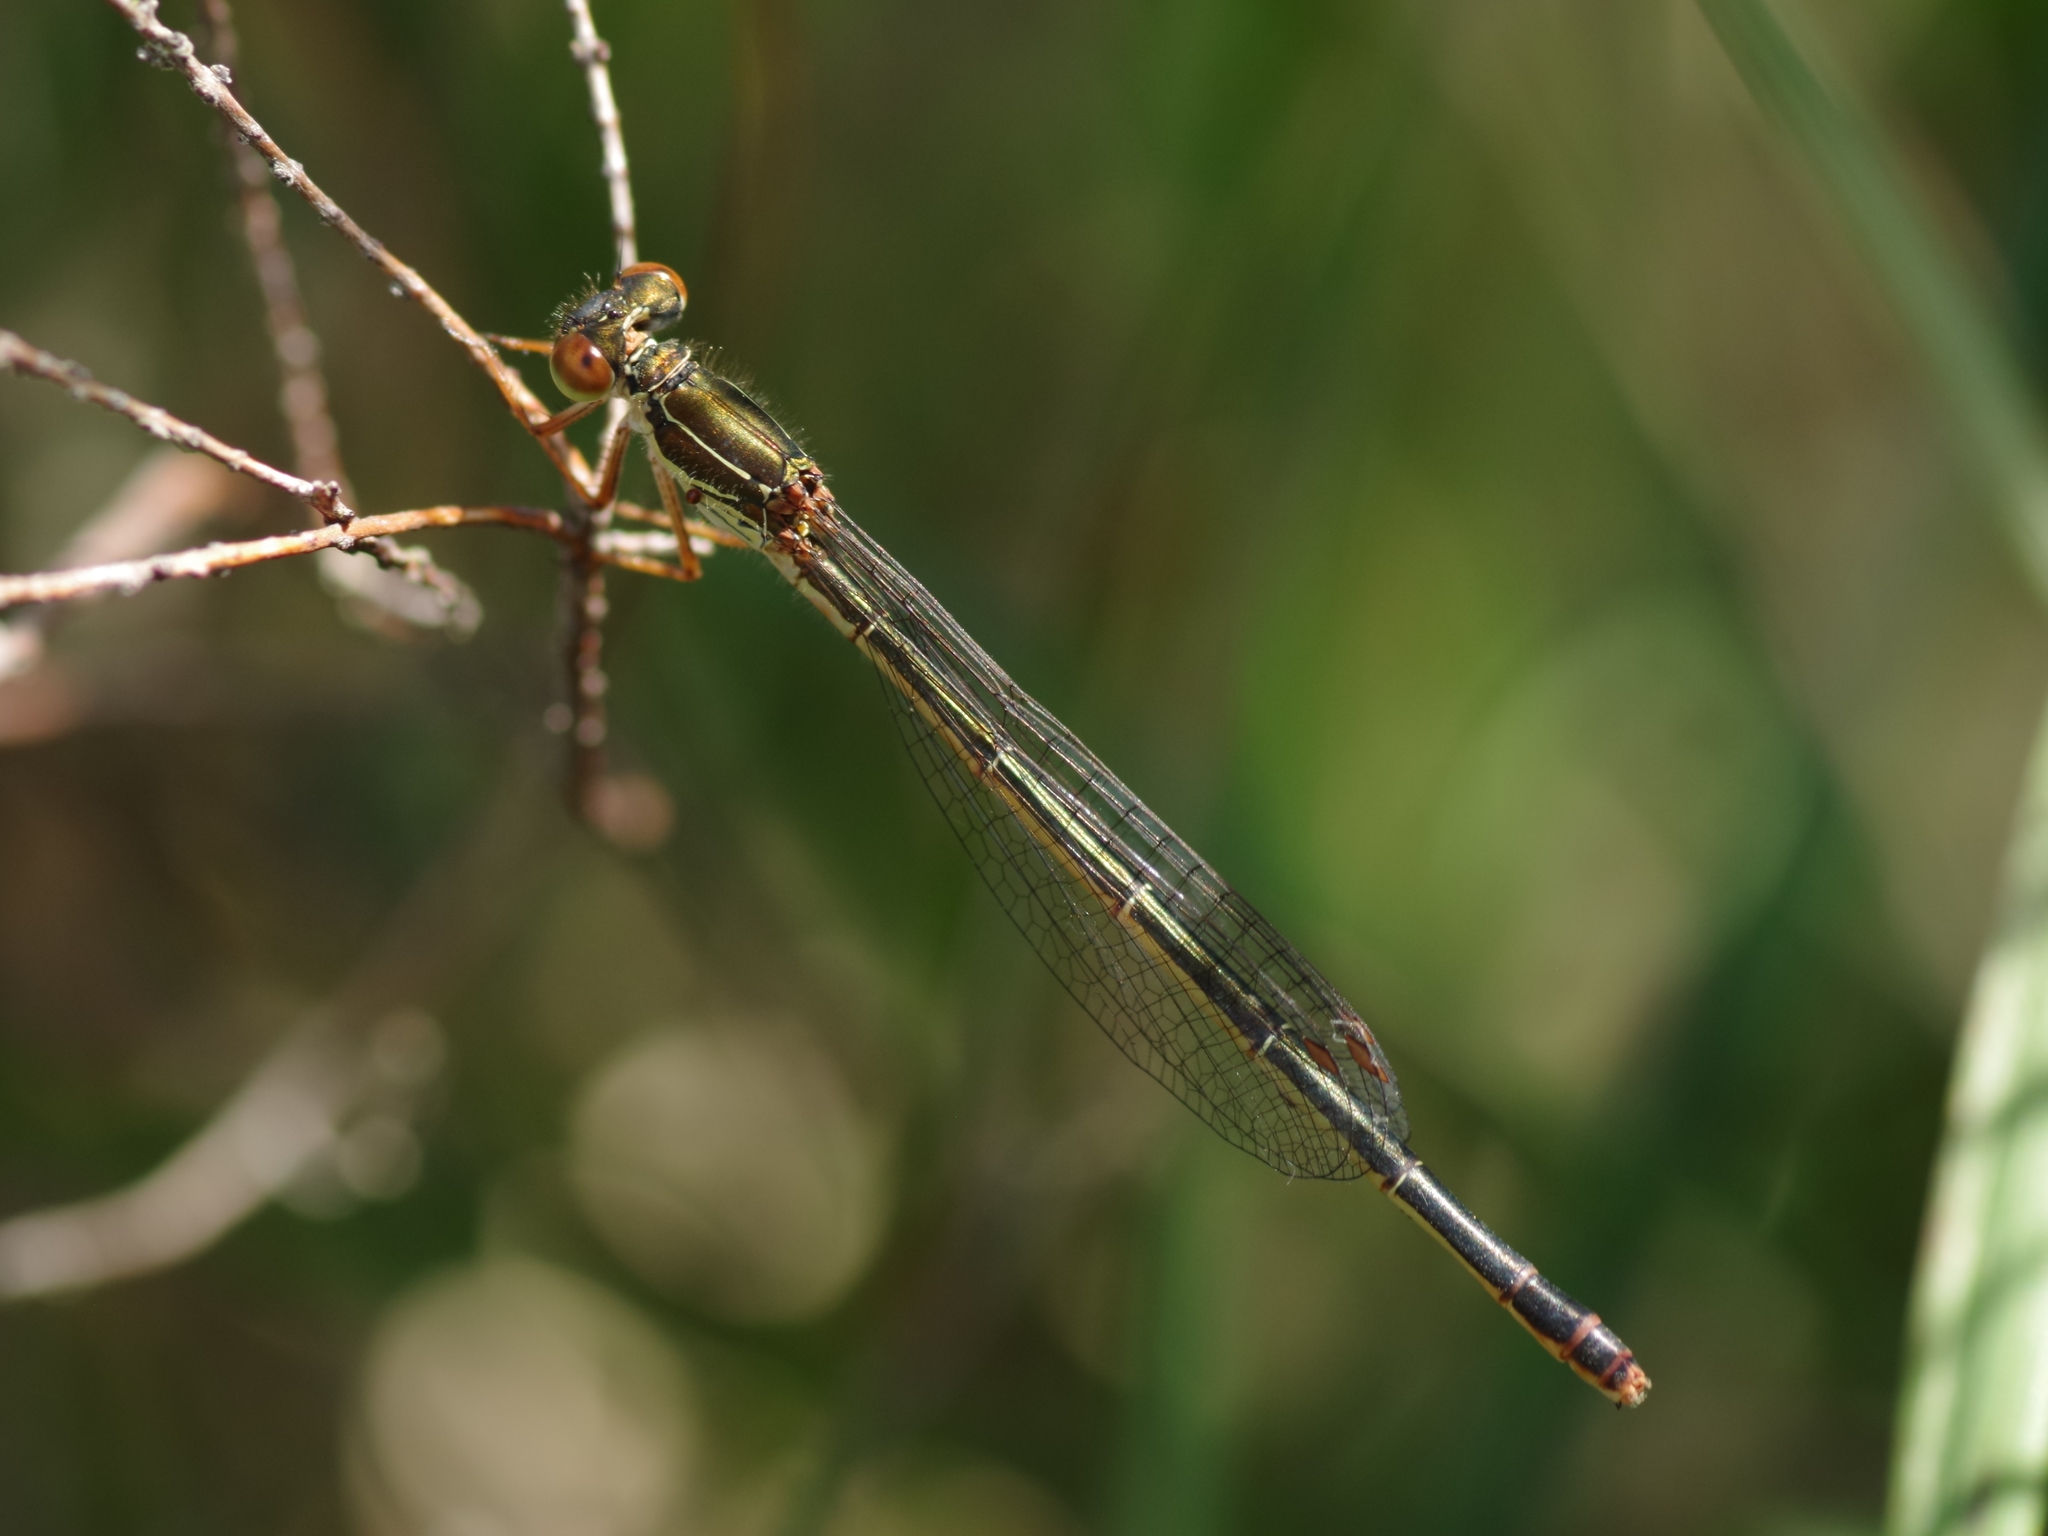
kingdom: Animalia
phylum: Arthropoda
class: Insecta
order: Odonata
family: Coenagrionidae
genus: Ceriagrion
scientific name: Ceriagrion tenellum
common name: Small red damselfly
